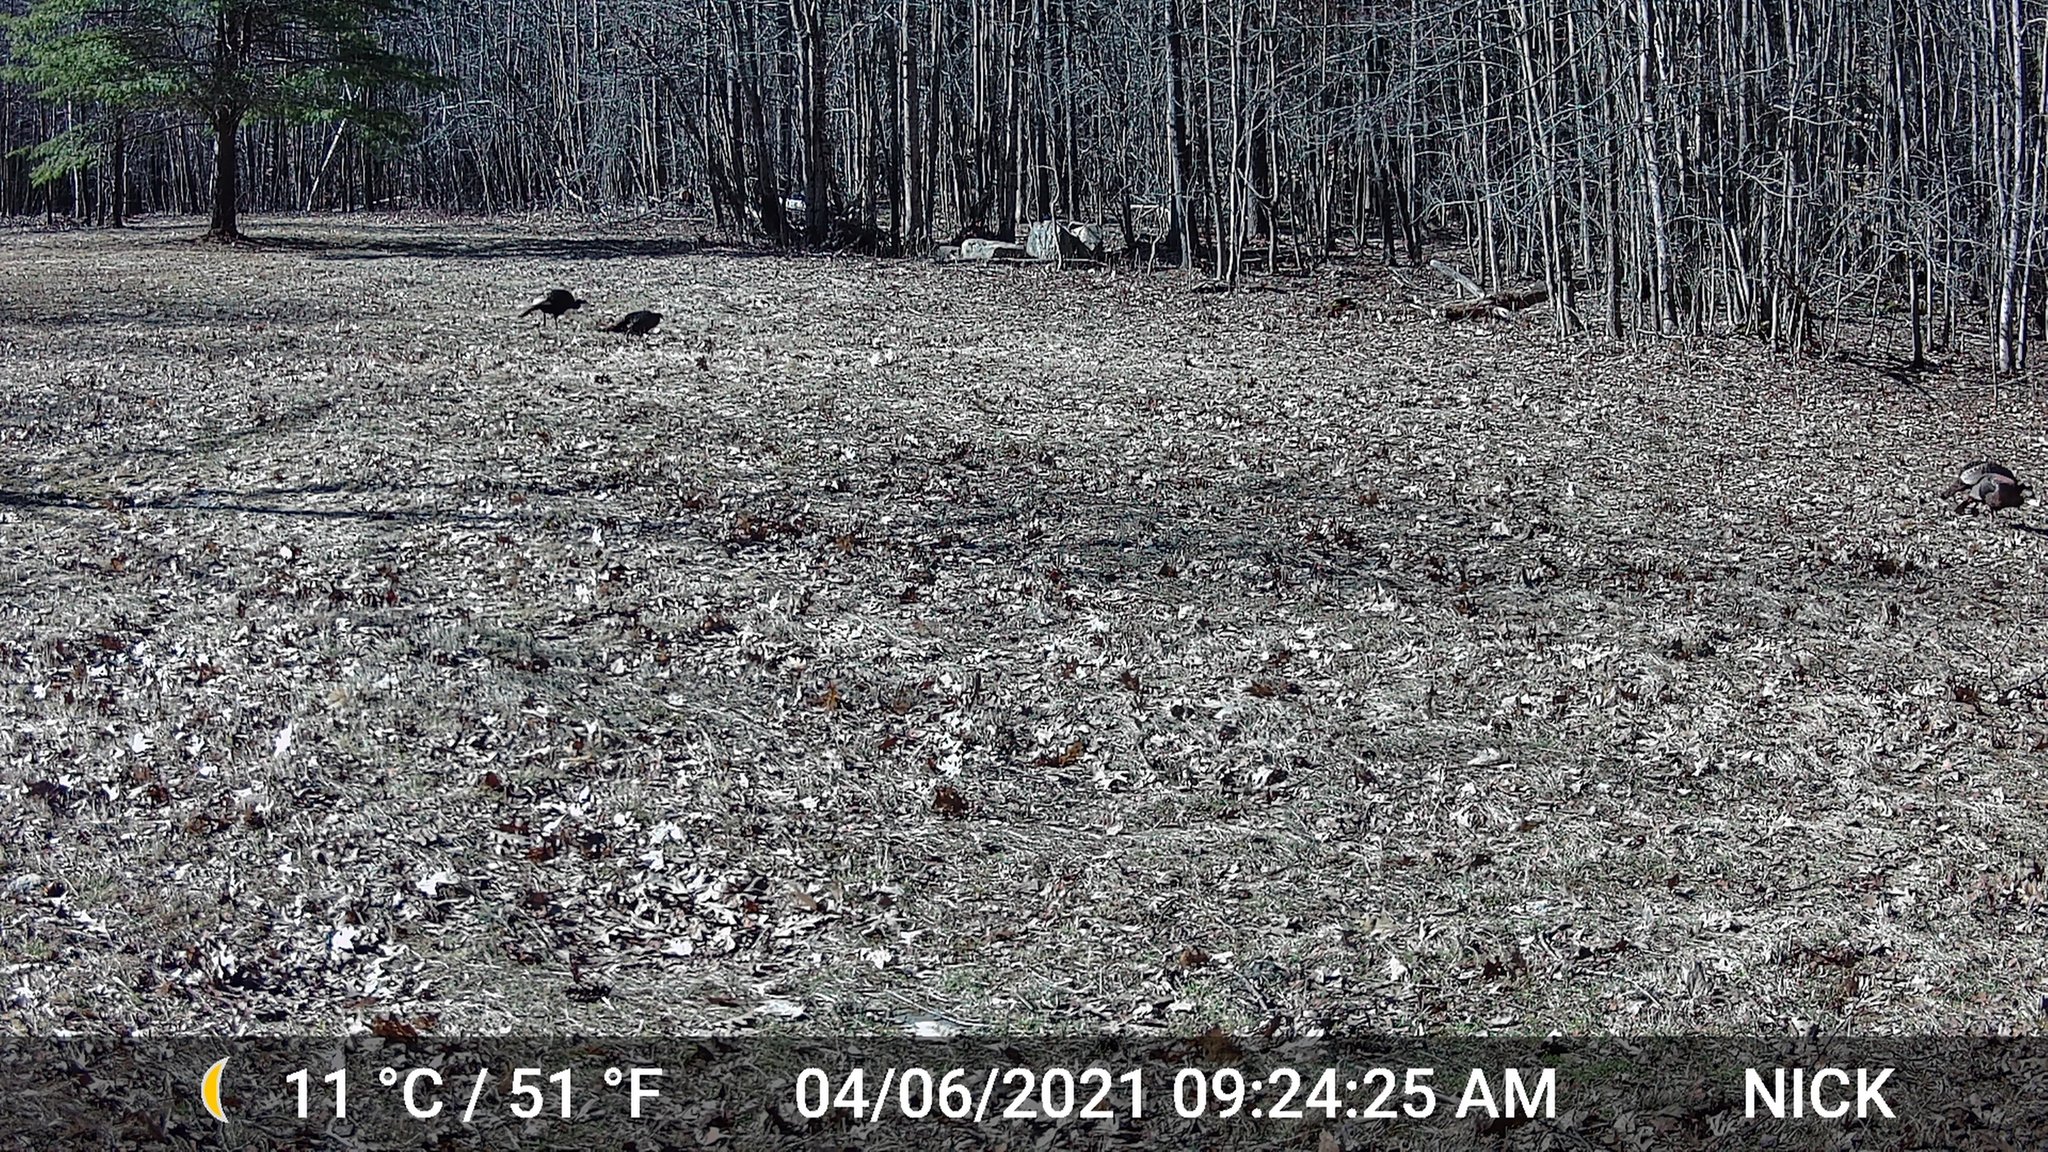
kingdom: Animalia
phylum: Chordata
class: Aves
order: Galliformes
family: Phasianidae
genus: Meleagris
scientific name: Meleagris gallopavo
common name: Wild turkey
